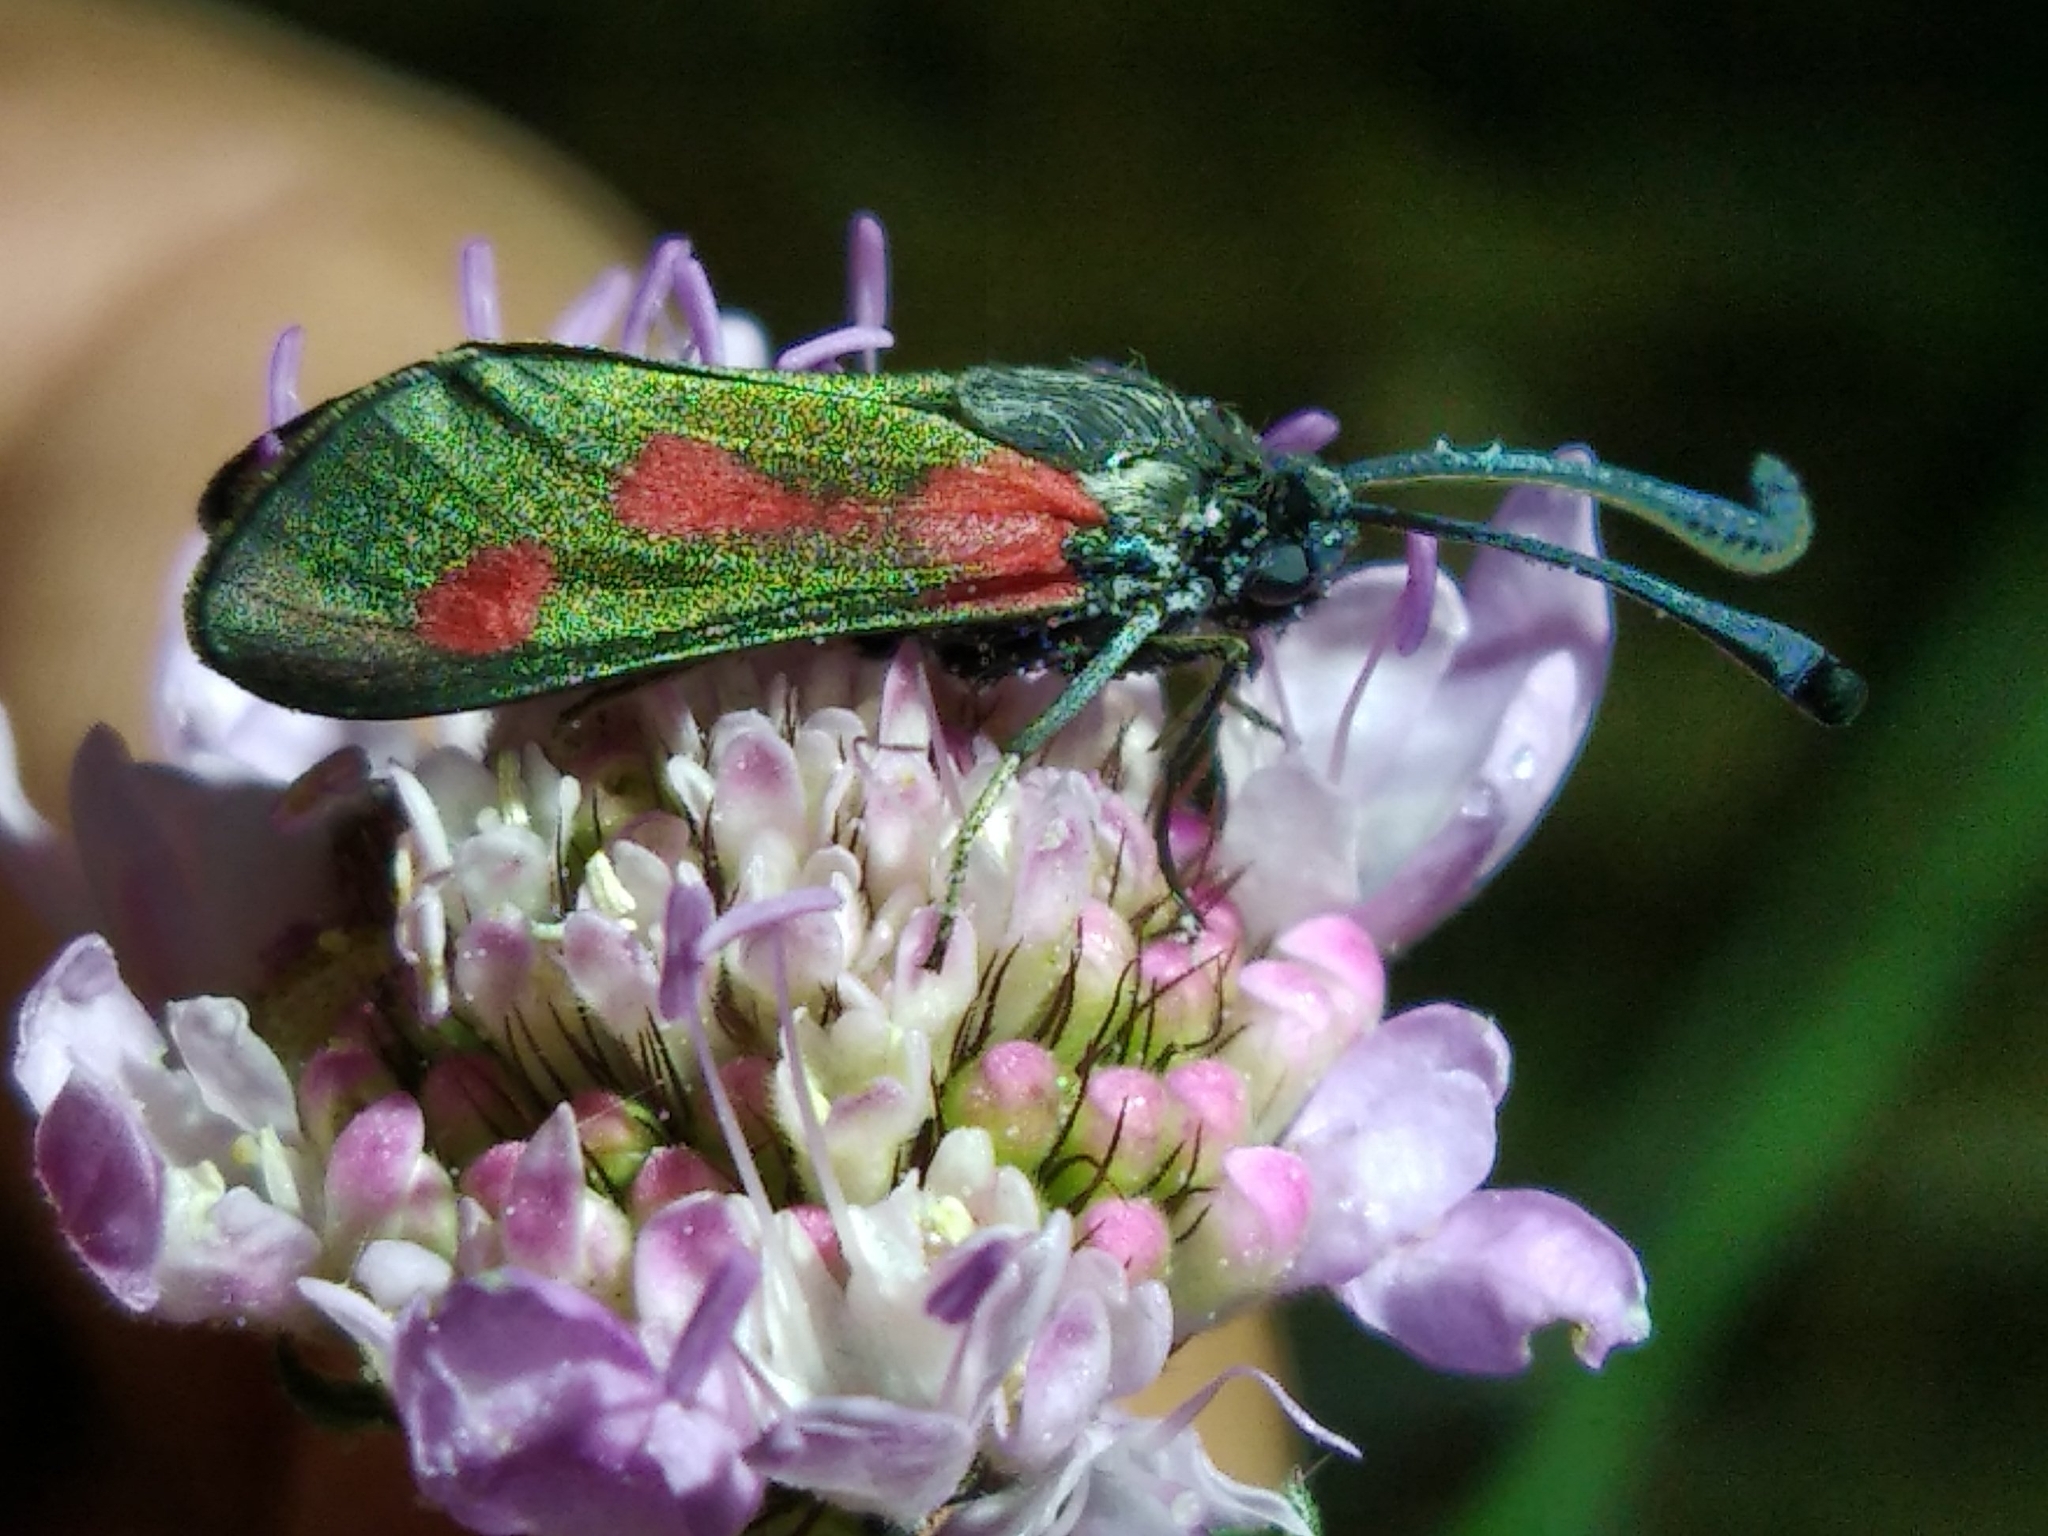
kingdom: Animalia
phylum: Arthropoda
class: Insecta
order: Lepidoptera
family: Zygaenidae
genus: Zygaena
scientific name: Zygaena sarpedon
